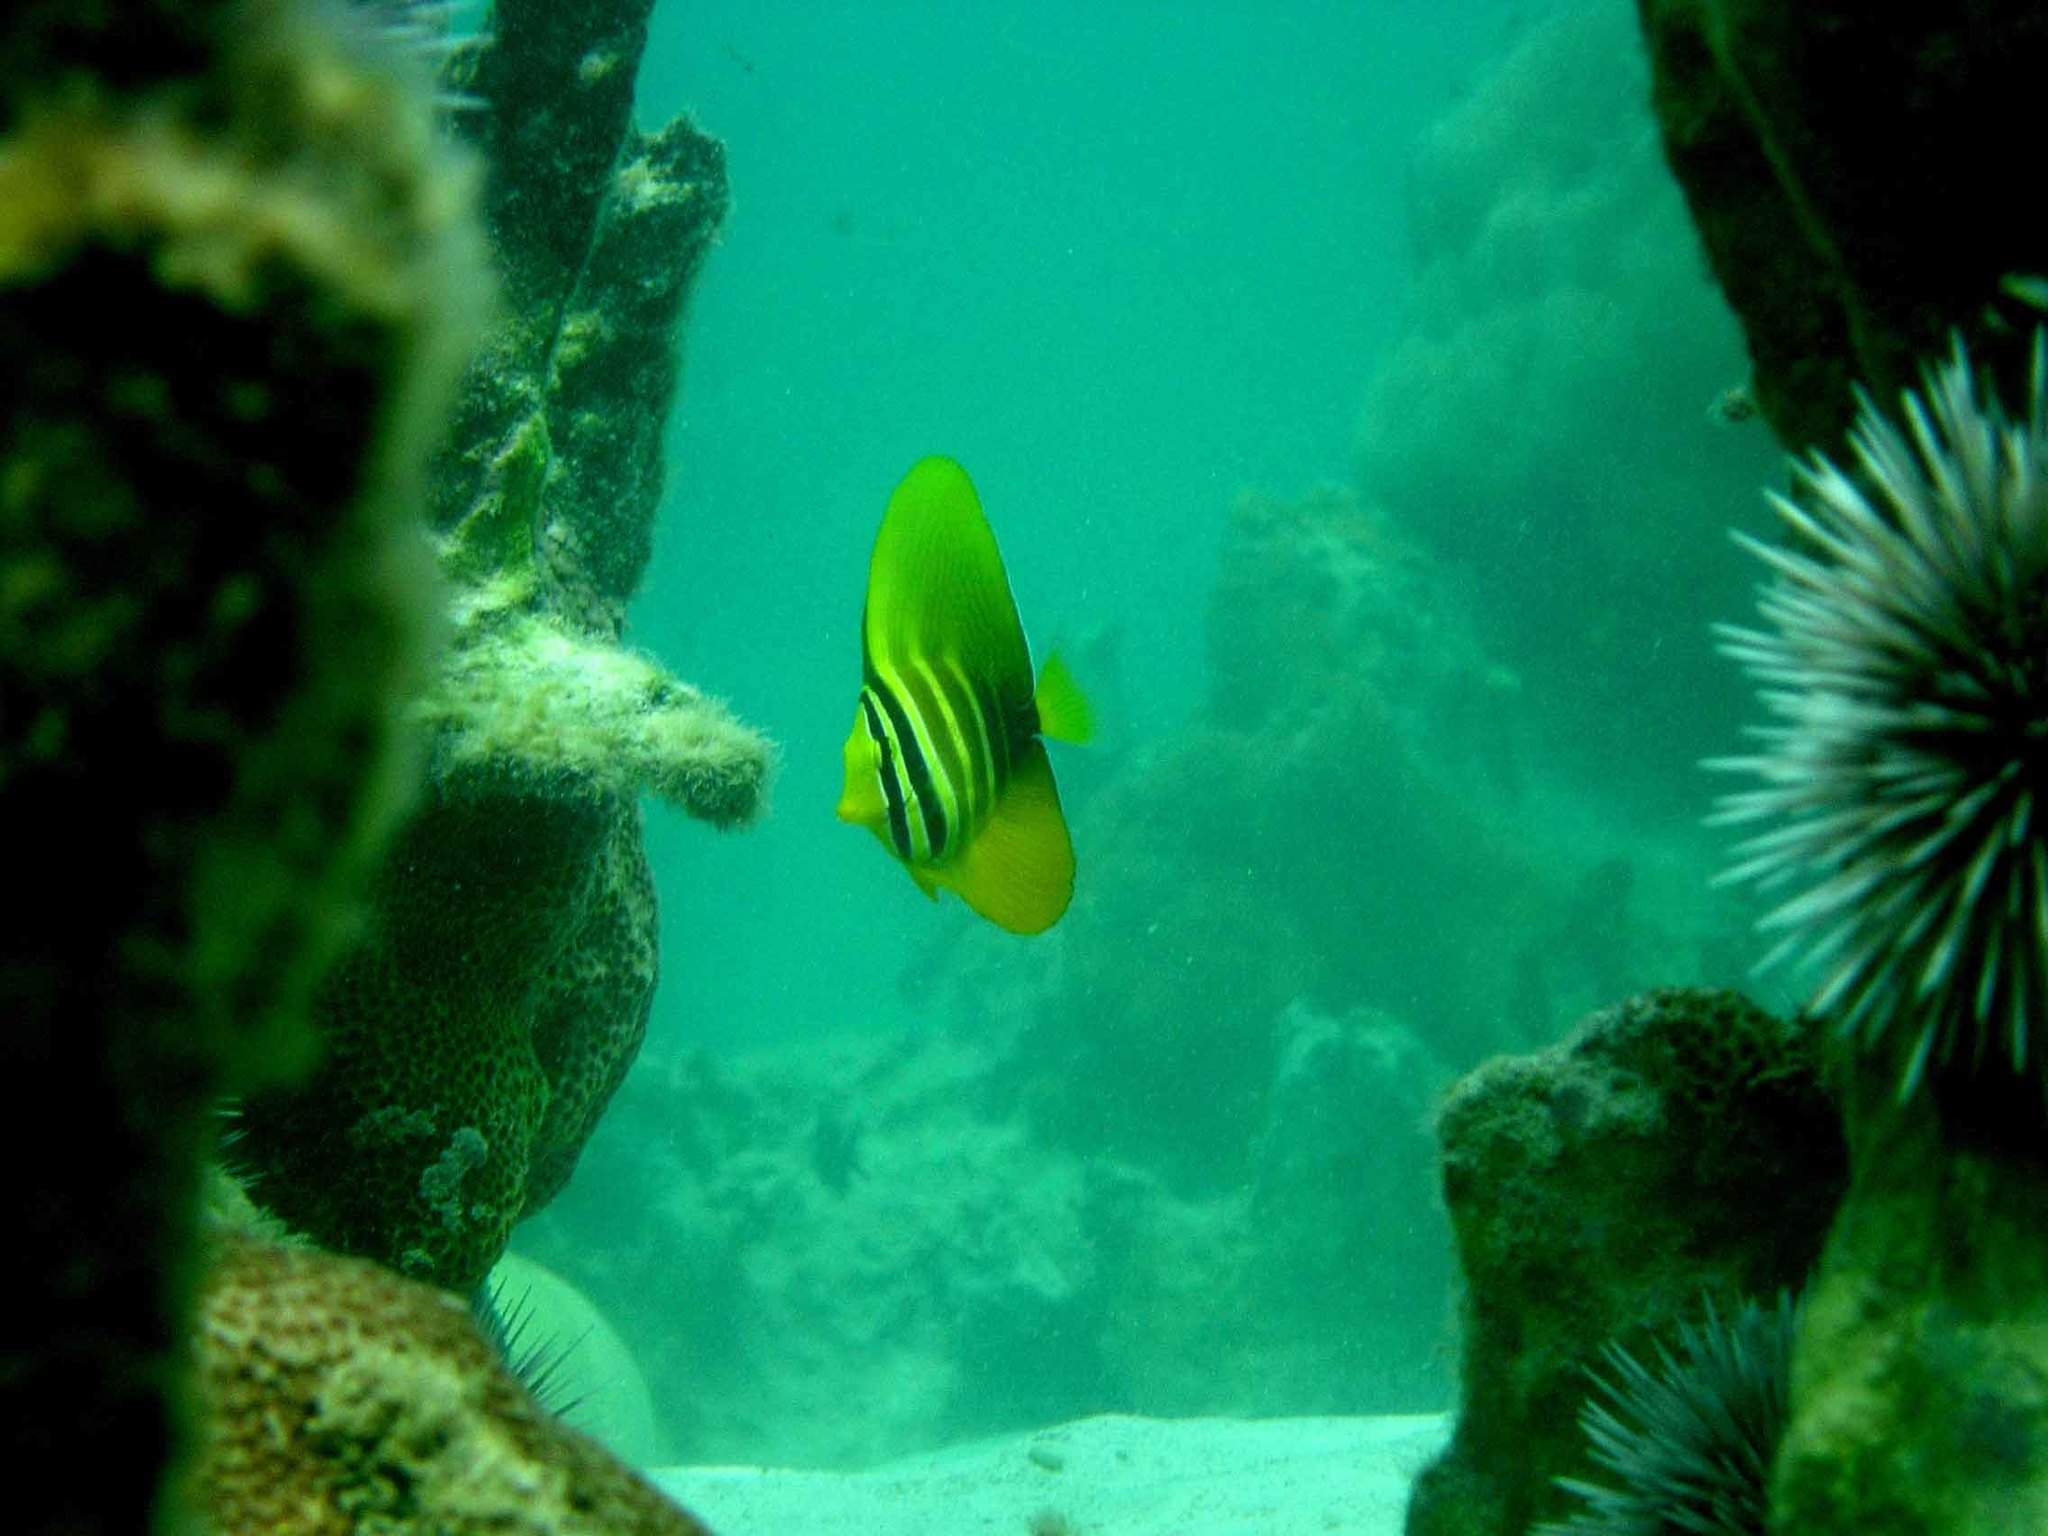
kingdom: Animalia
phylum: Chordata
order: Perciformes
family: Acanthuridae
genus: Zebrasoma
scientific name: Zebrasoma veliferum
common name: Sailfin surgeonfish
